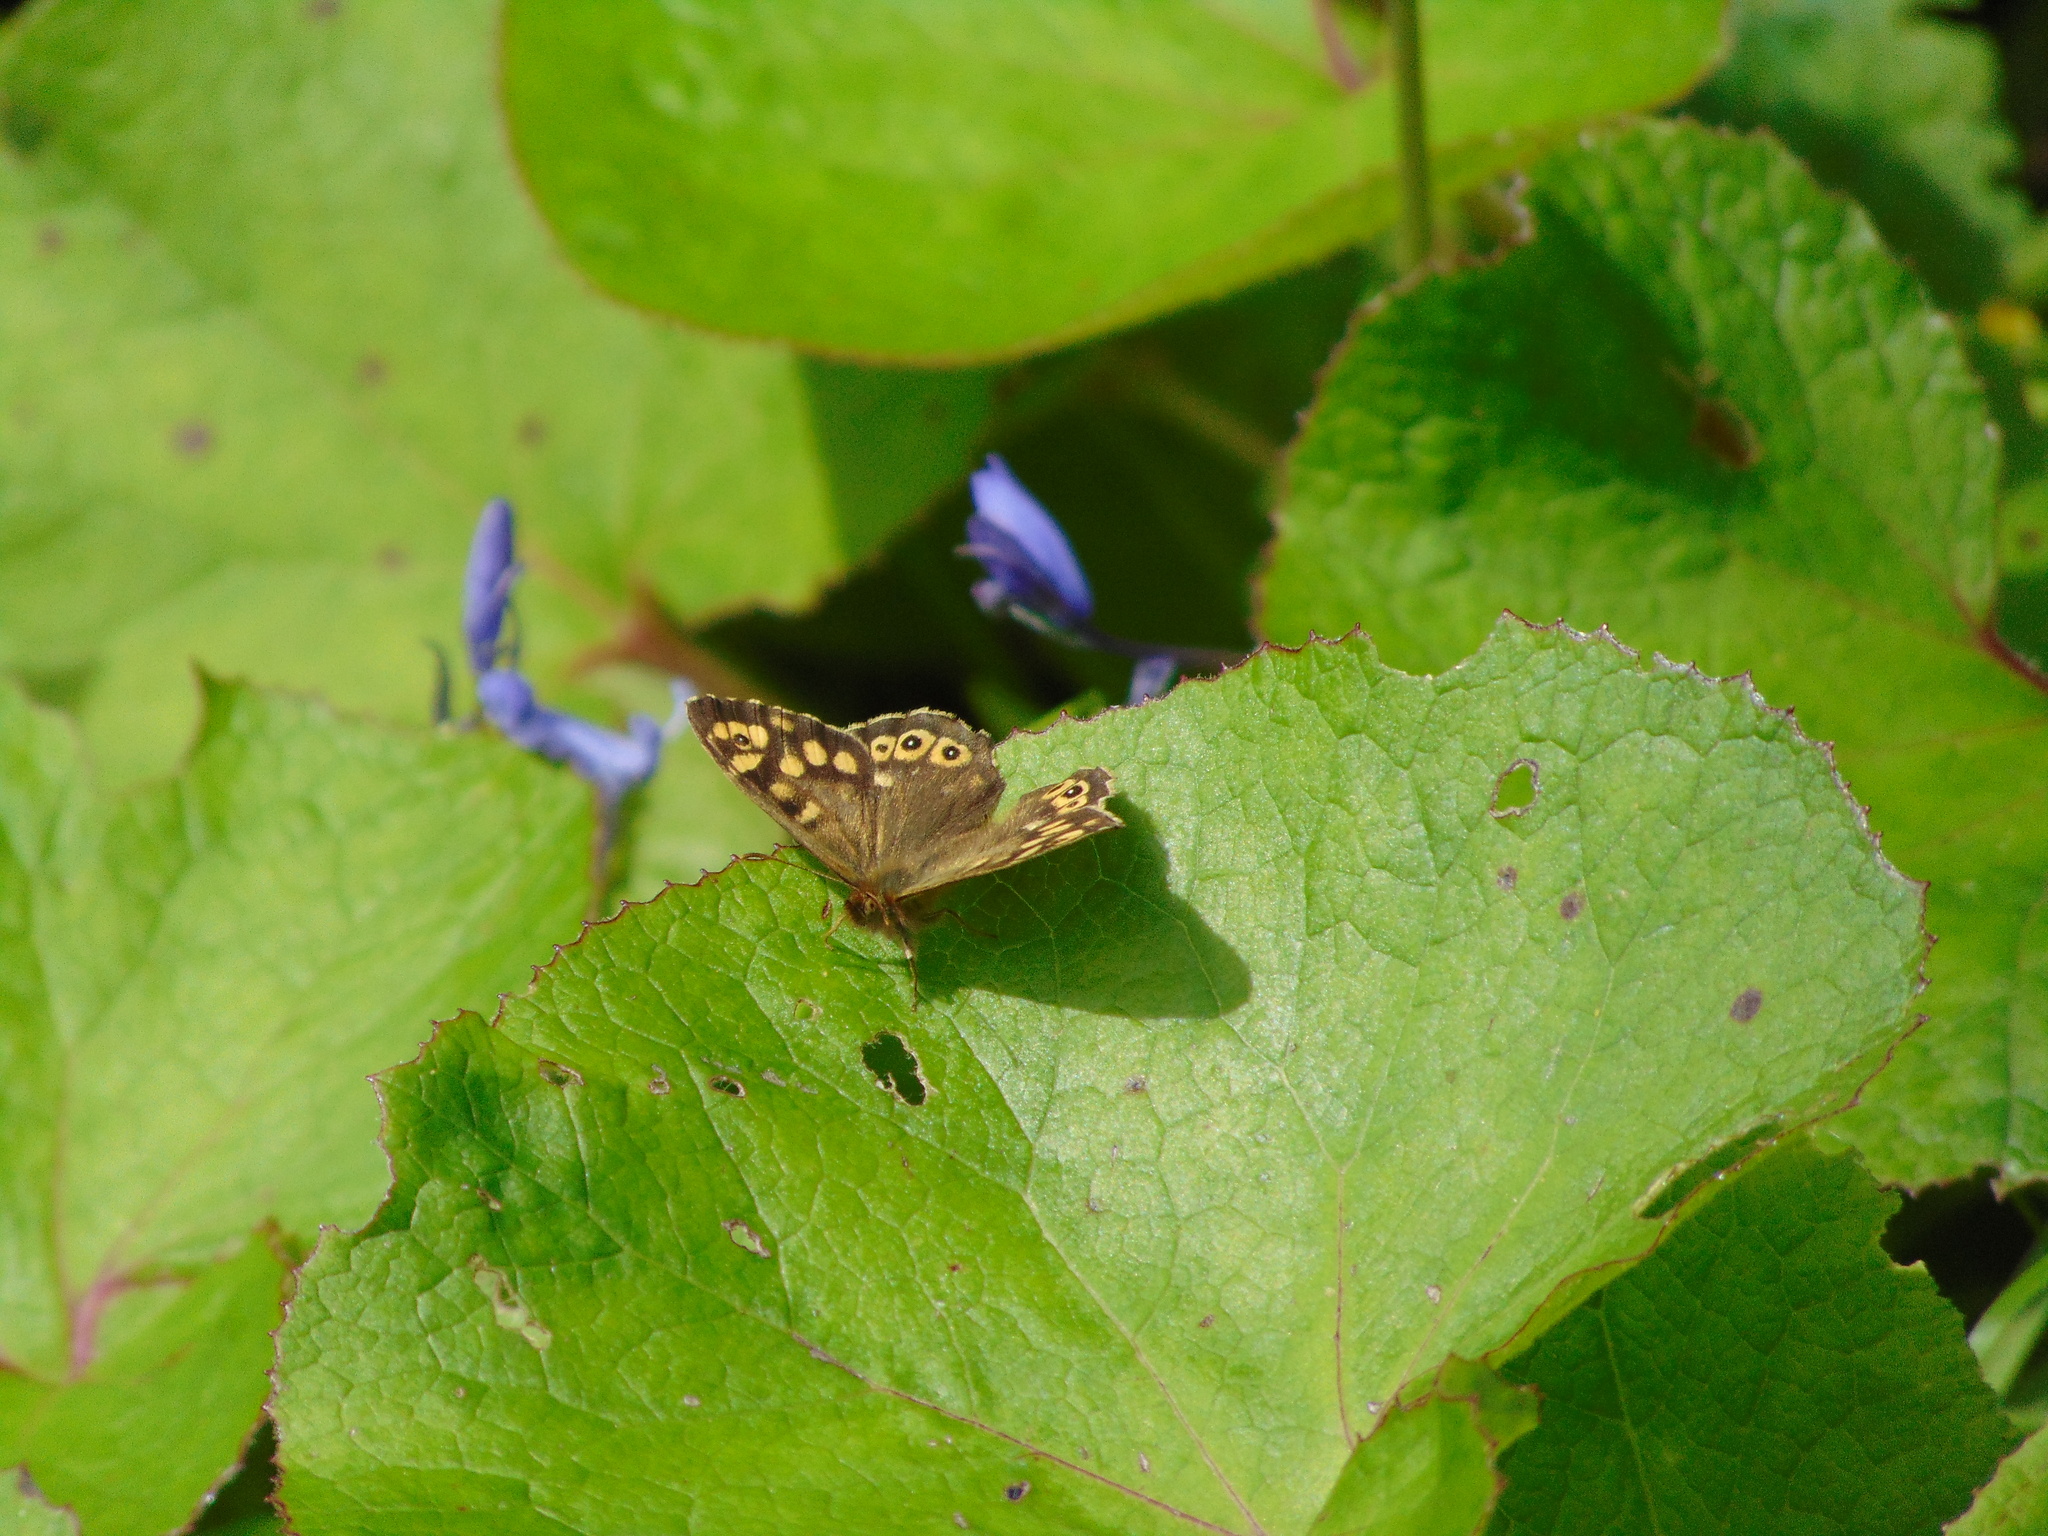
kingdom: Animalia
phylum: Arthropoda
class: Insecta
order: Lepidoptera
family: Nymphalidae
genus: Pararge
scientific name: Pararge aegeria
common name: Speckled wood
